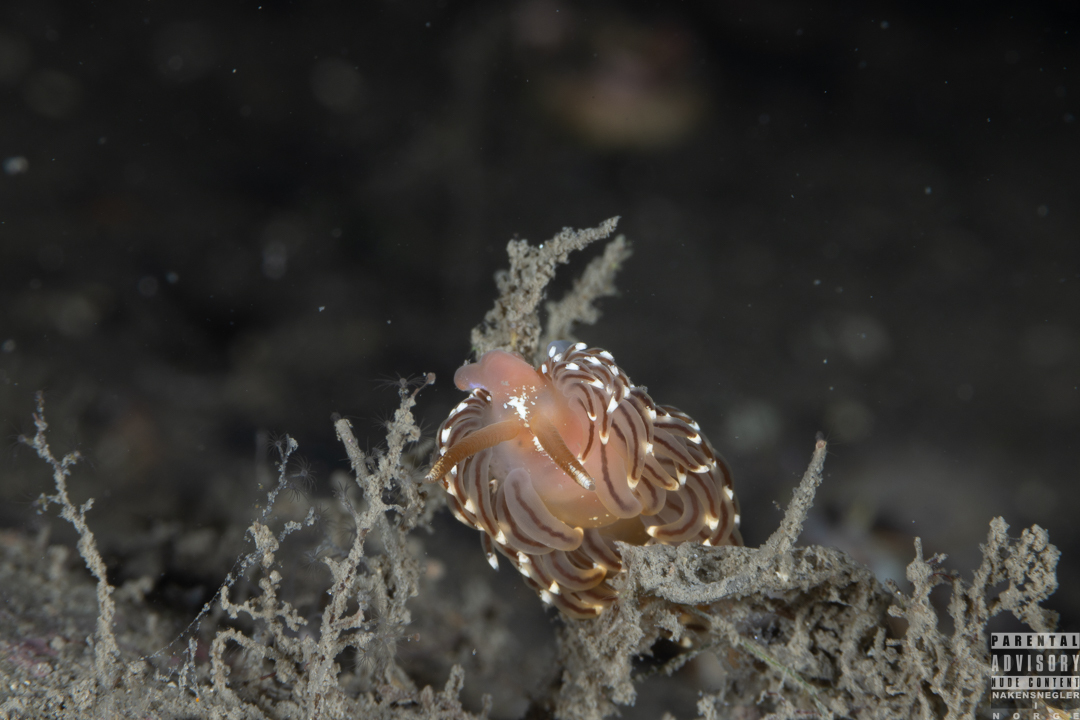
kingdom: Animalia
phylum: Mollusca
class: Gastropoda
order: Nudibranchia
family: Facelinidae
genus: Facelina
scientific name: Facelina bostoniensis
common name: Boston facelina
